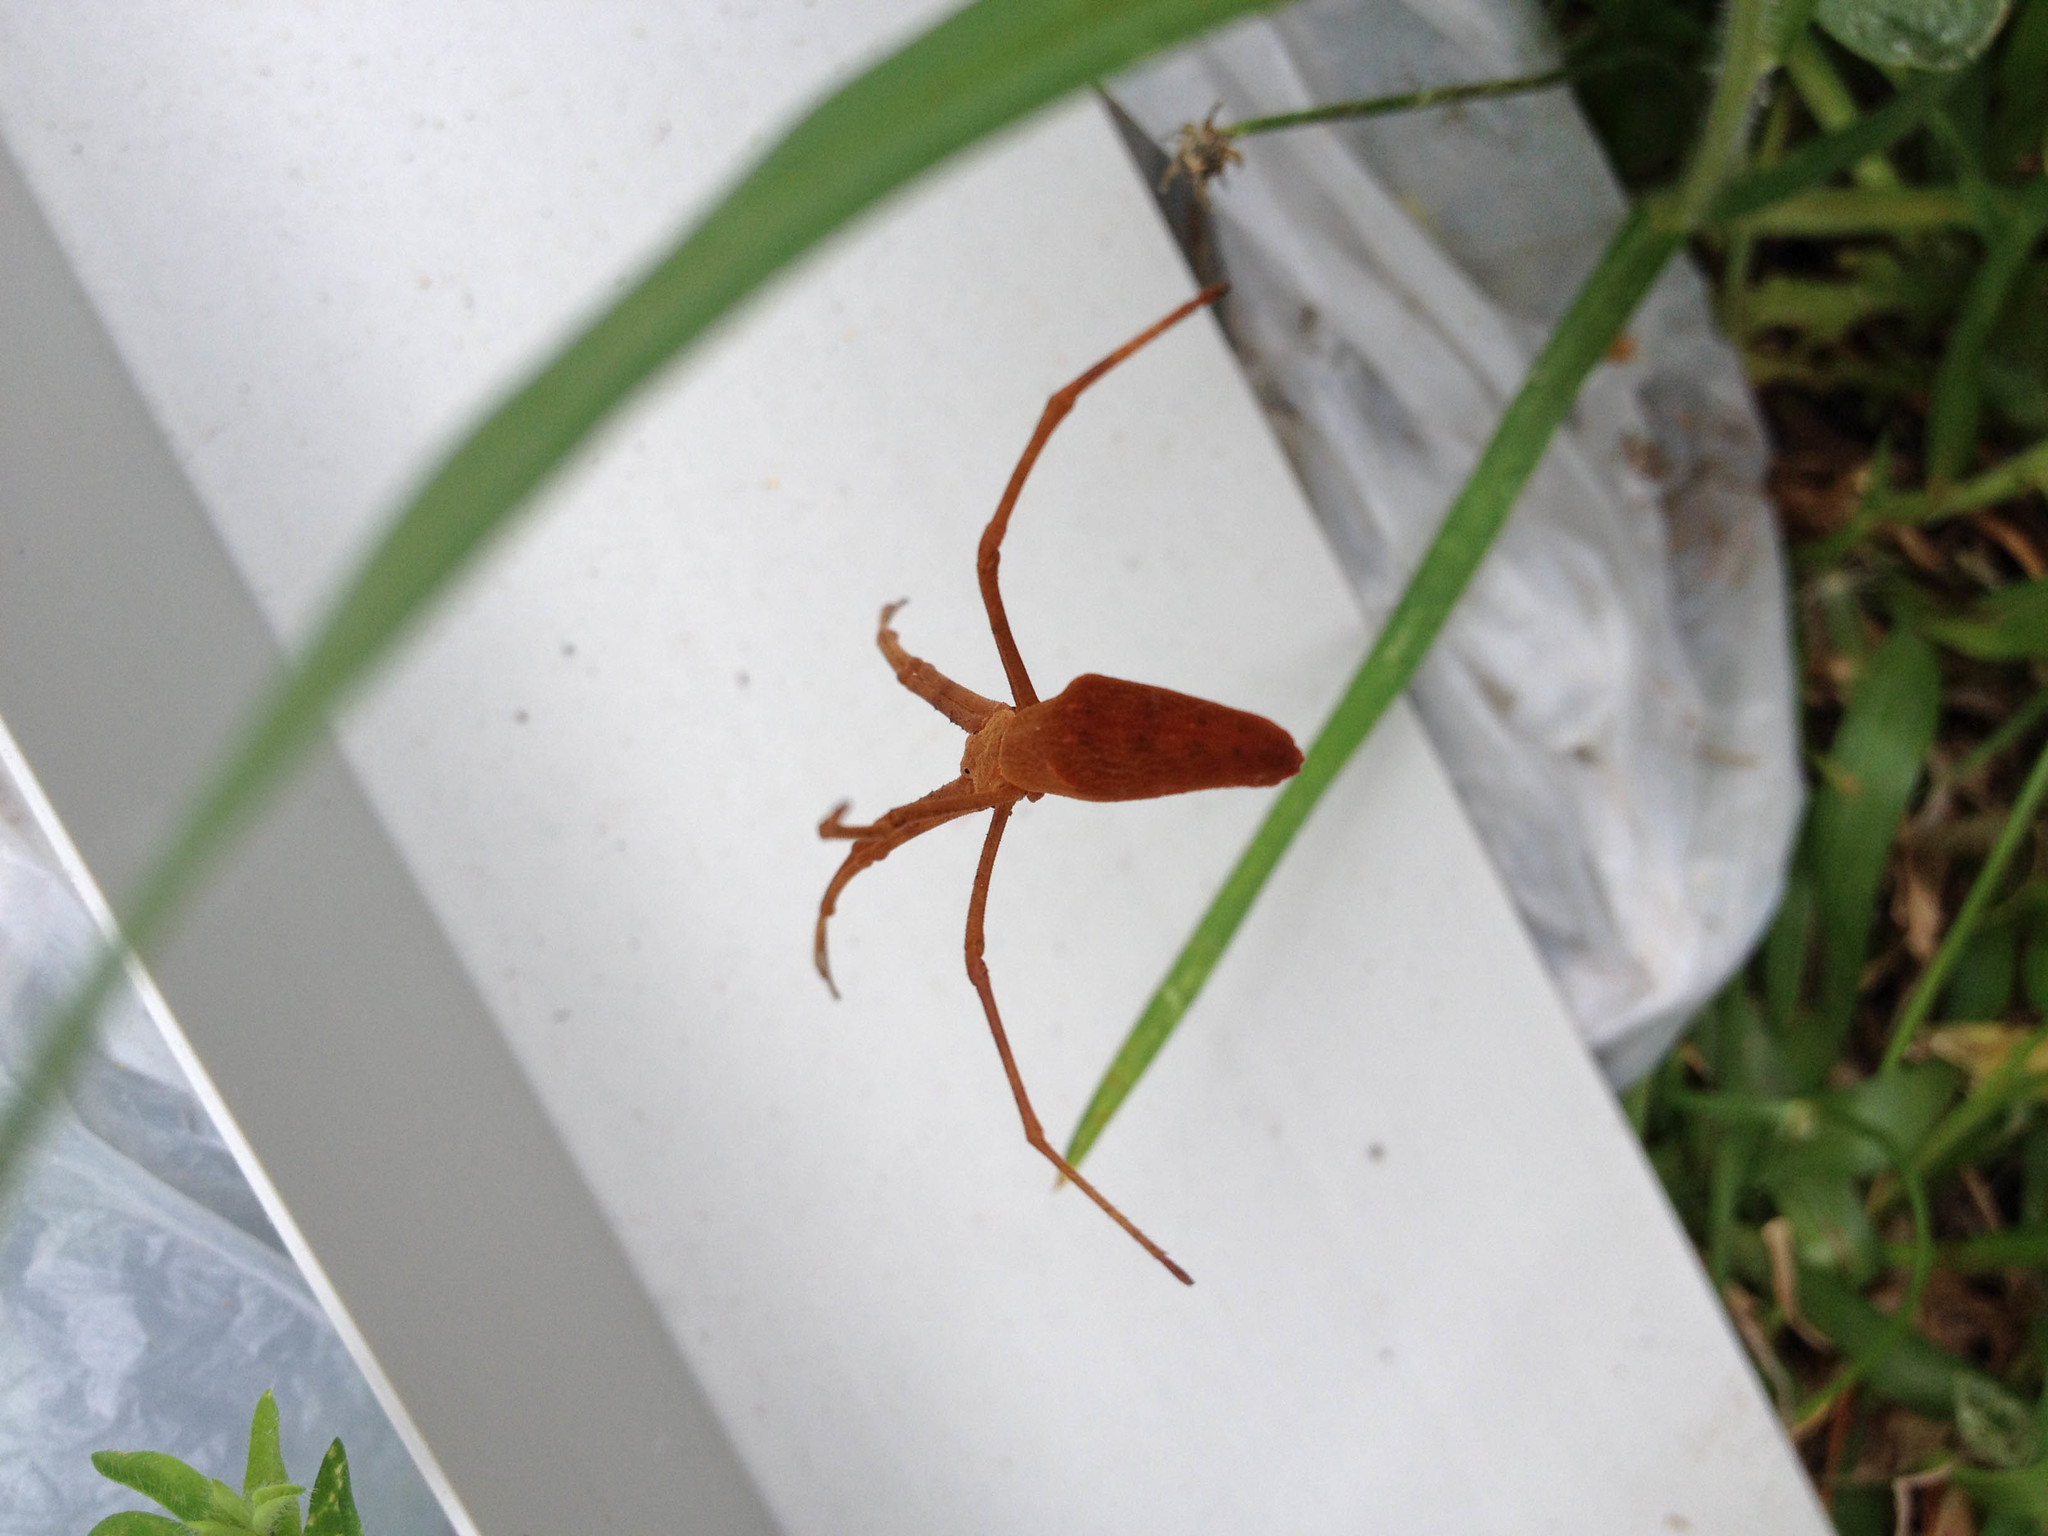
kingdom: Animalia
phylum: Arthropoda
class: Arachnida
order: Araneae
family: Deinopidae
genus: Deinopis
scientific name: Deinopis subrufa
